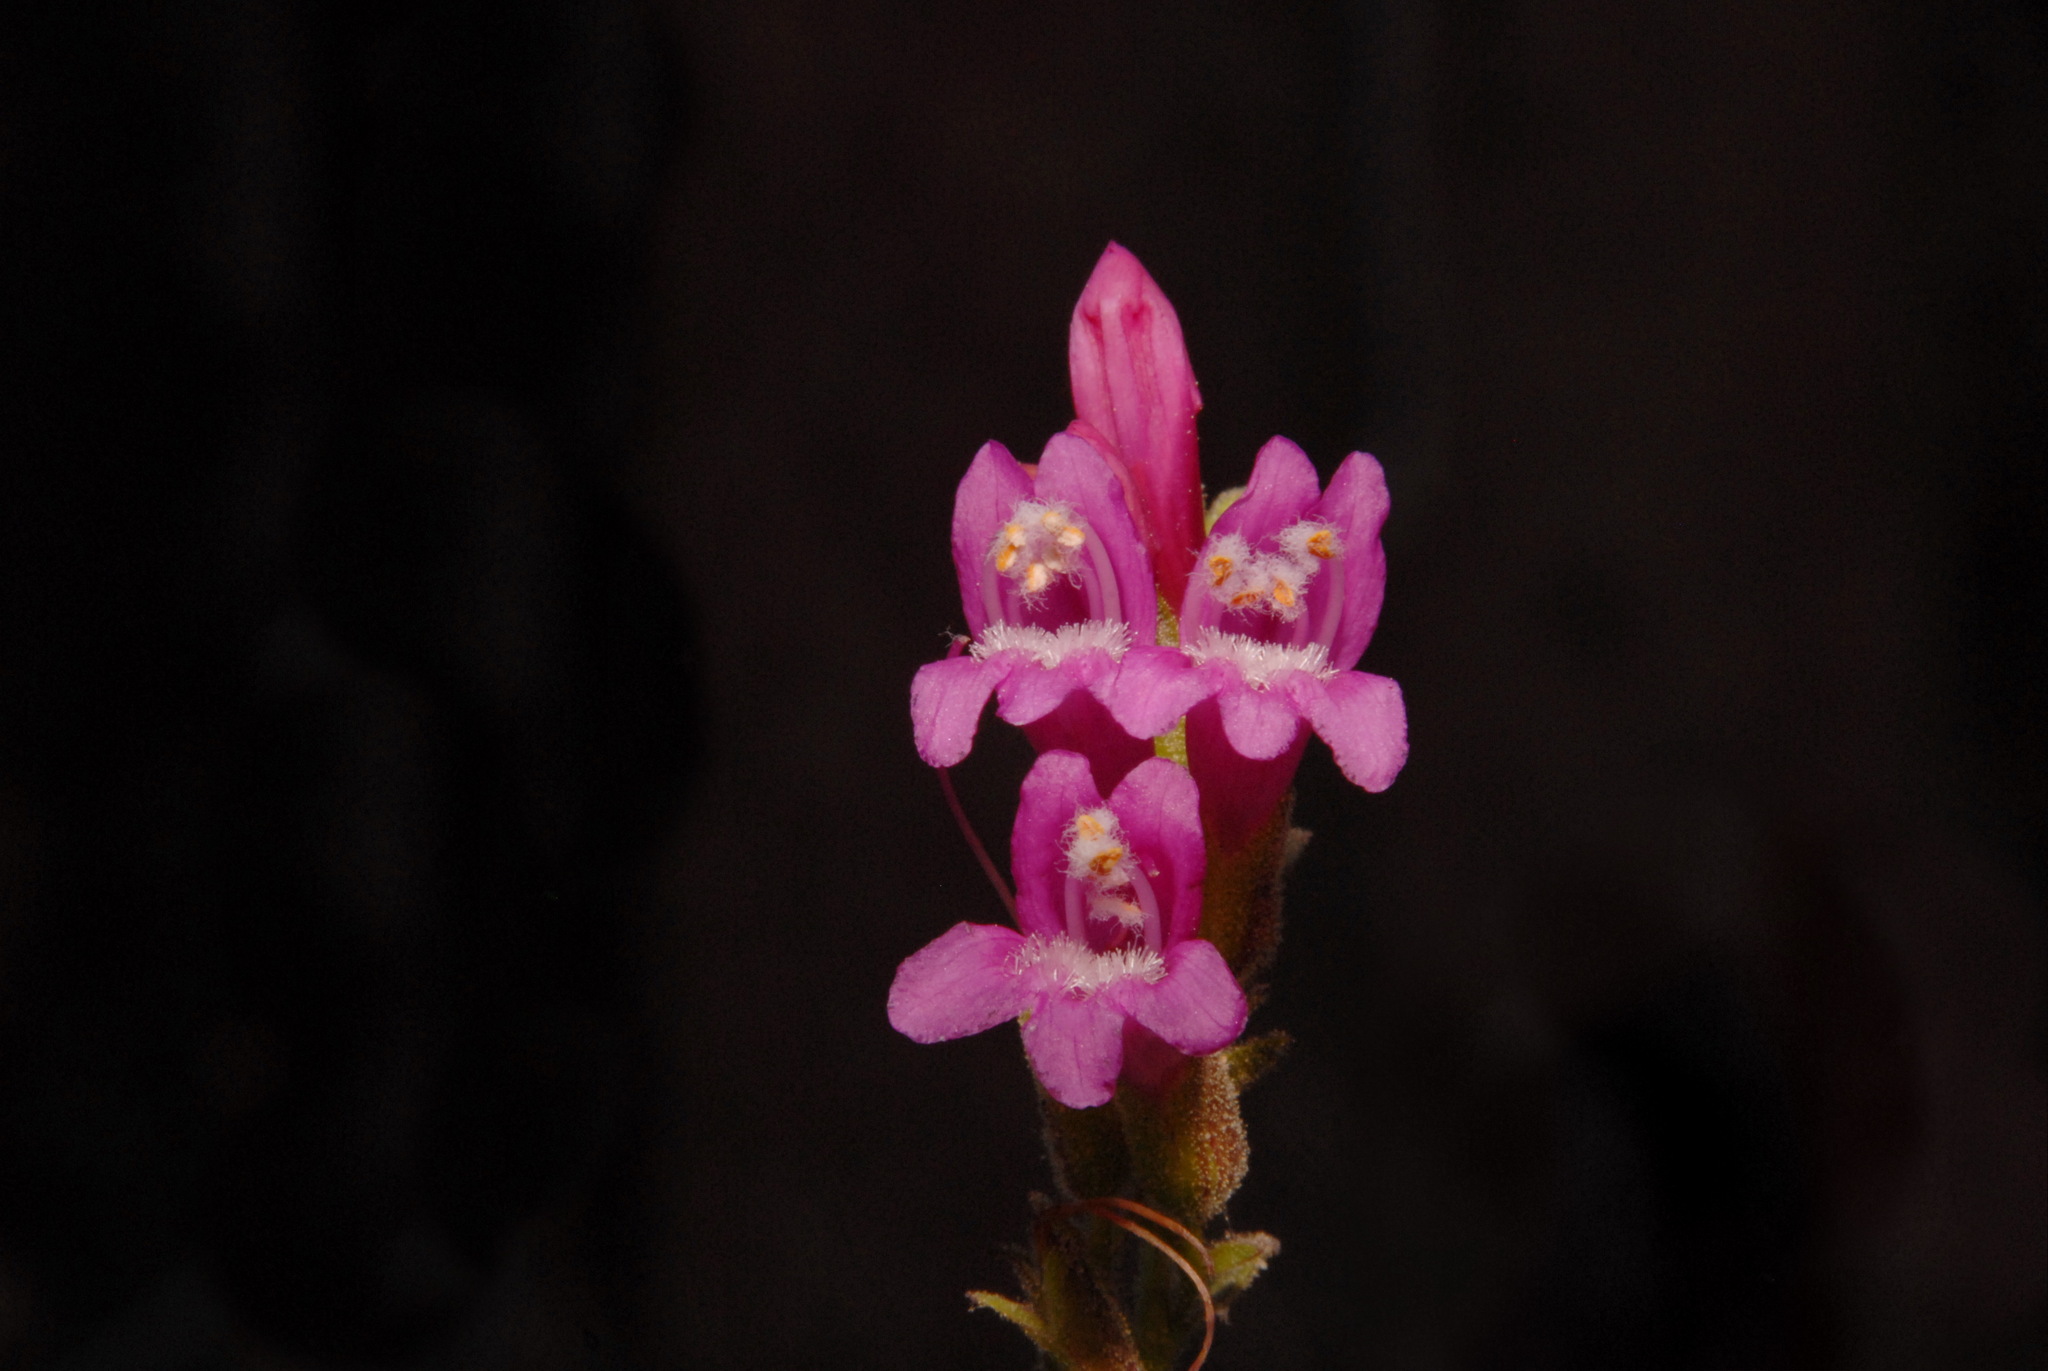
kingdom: Plantae
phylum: Tracheophyta
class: Magnoliopsida
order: Lamiales
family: Plantaginaceae
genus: Penstemon
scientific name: Penstemon newberryi
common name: Mountain-pride
